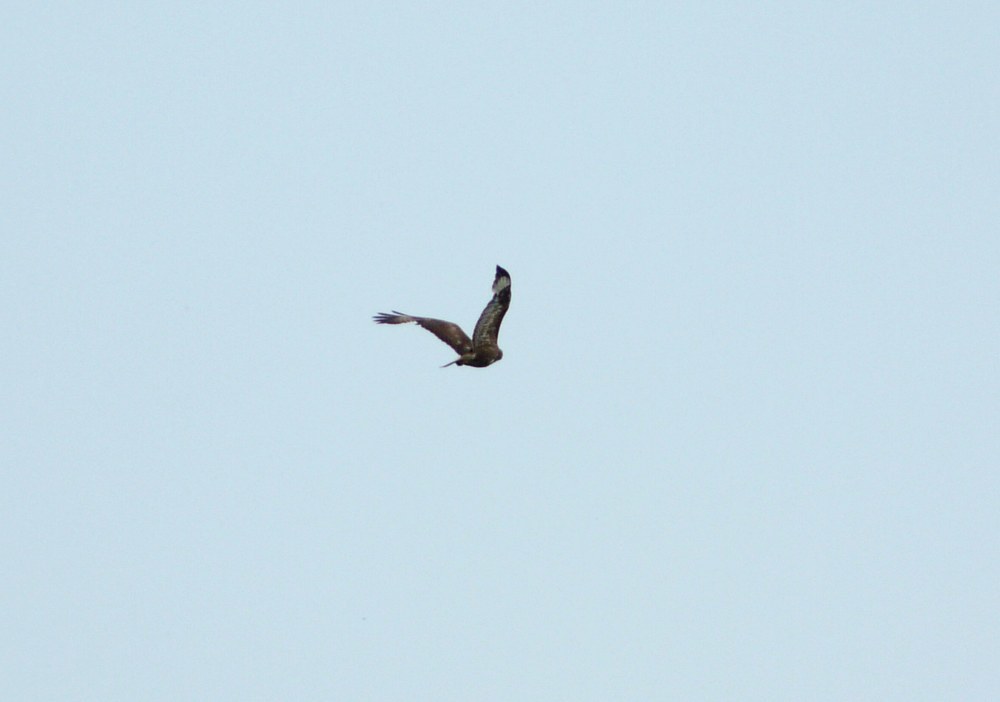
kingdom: Animalia
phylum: Chordata
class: Aves
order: Accipitriformes
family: Accipitridae
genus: Buteo
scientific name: Buteo buteo
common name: Common buzzard
